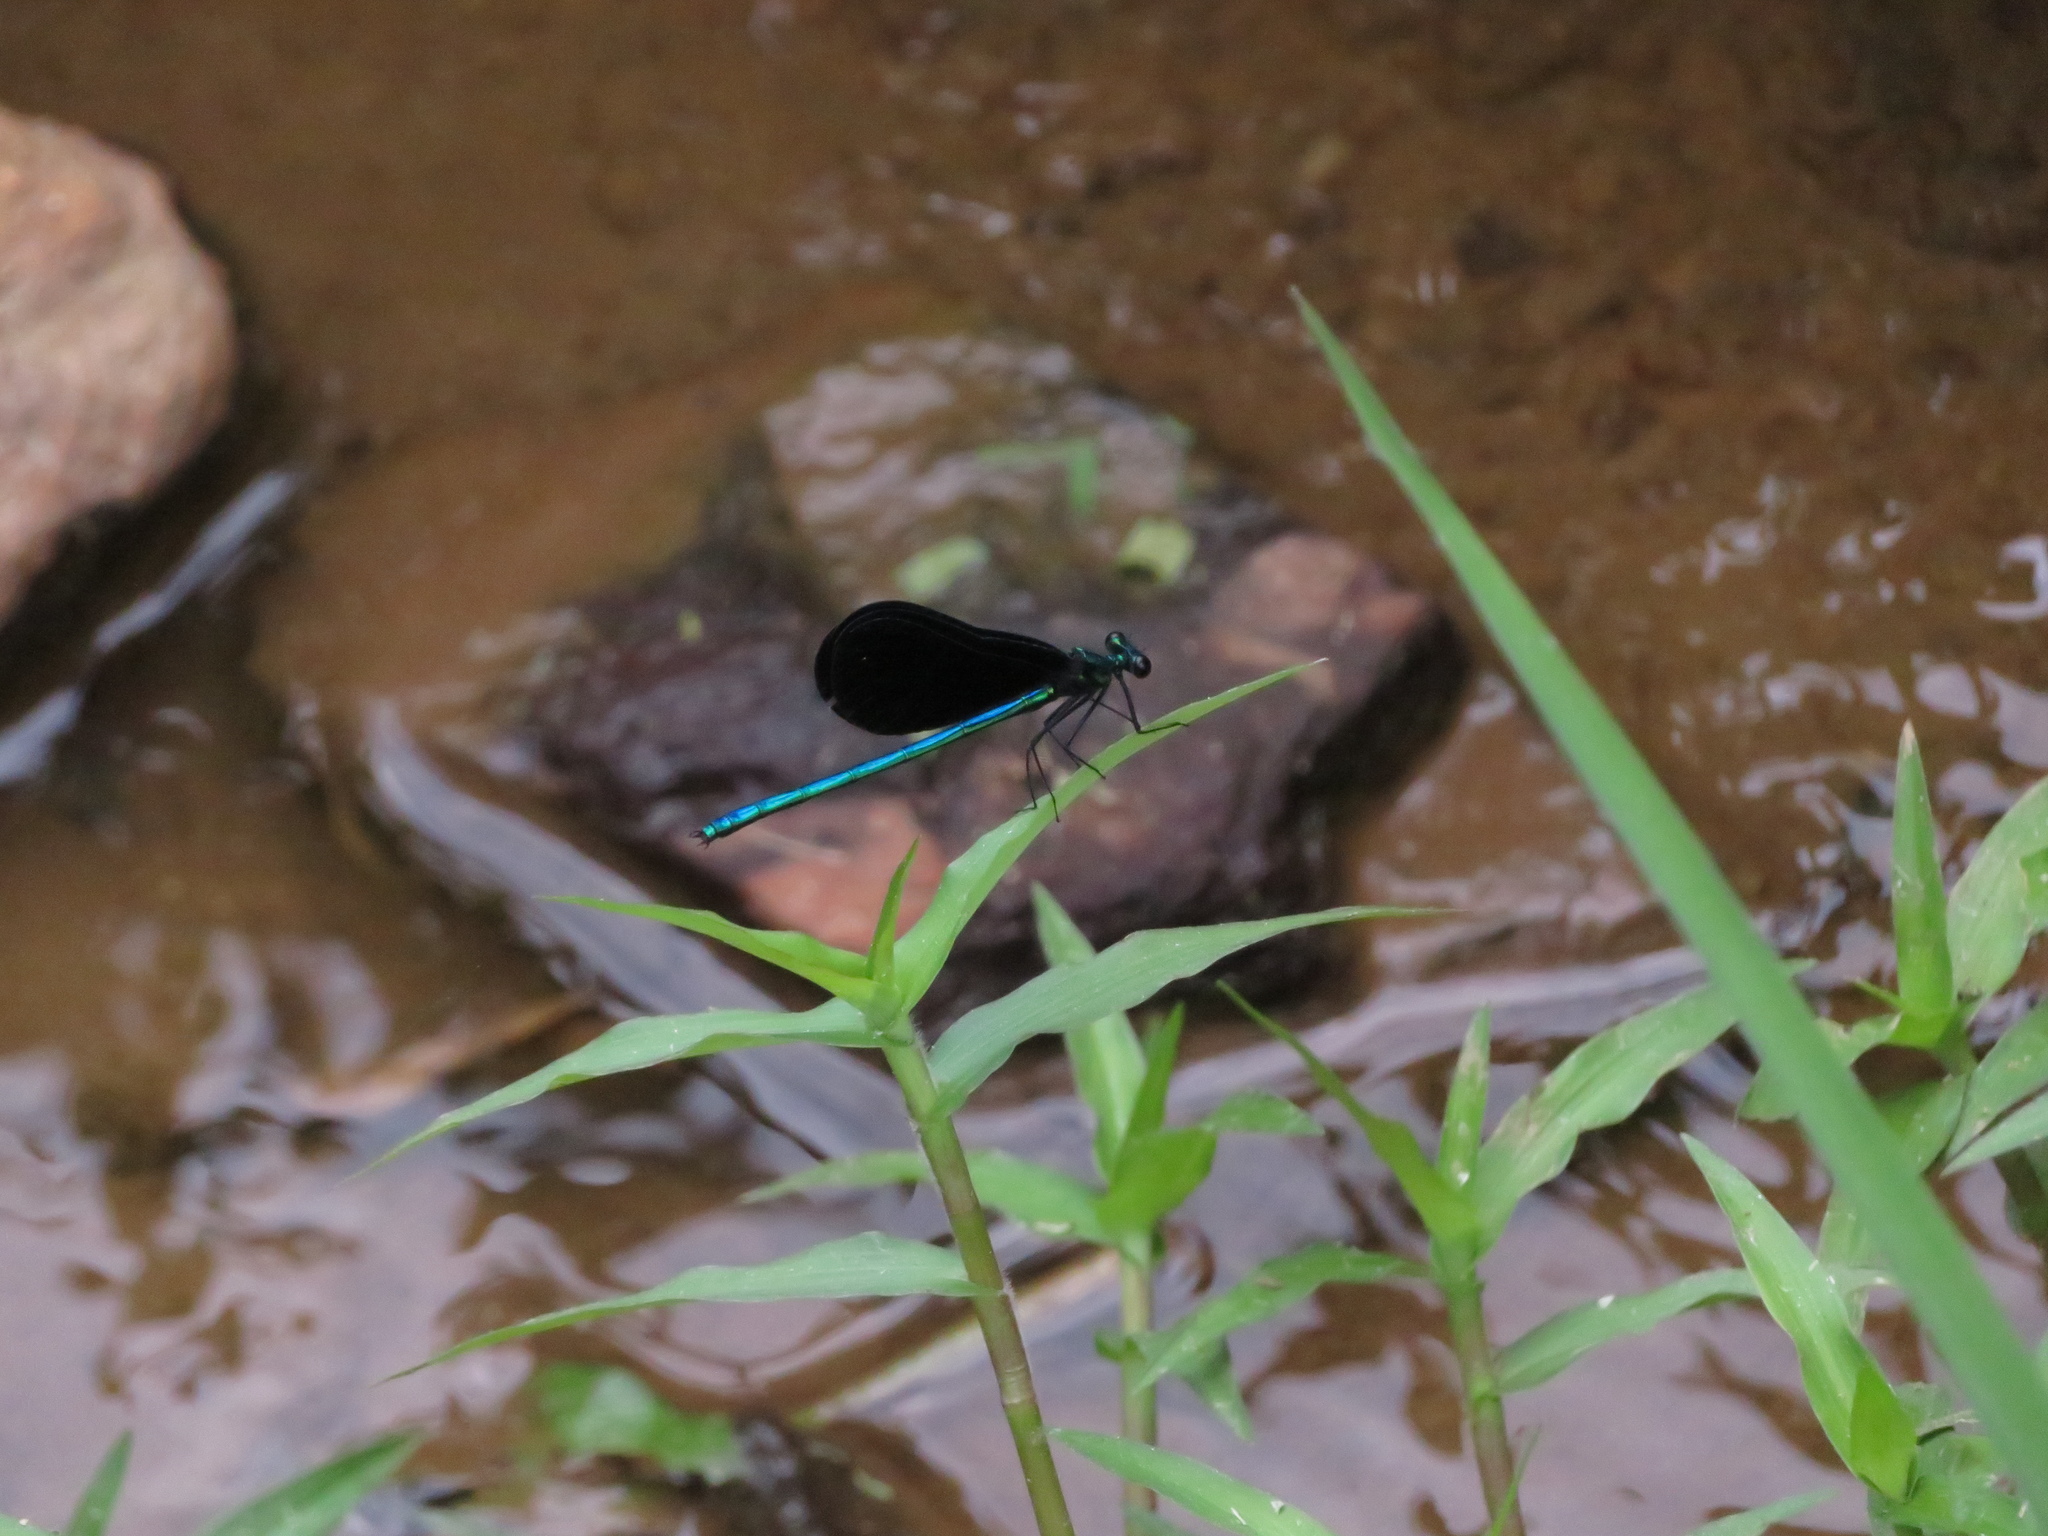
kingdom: Animalia
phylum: Arthropoda
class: Insecta
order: Odonata
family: Calopterygidae
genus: Calopteryx
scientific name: Calopteryx maculata
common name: Ebony jewelwing
